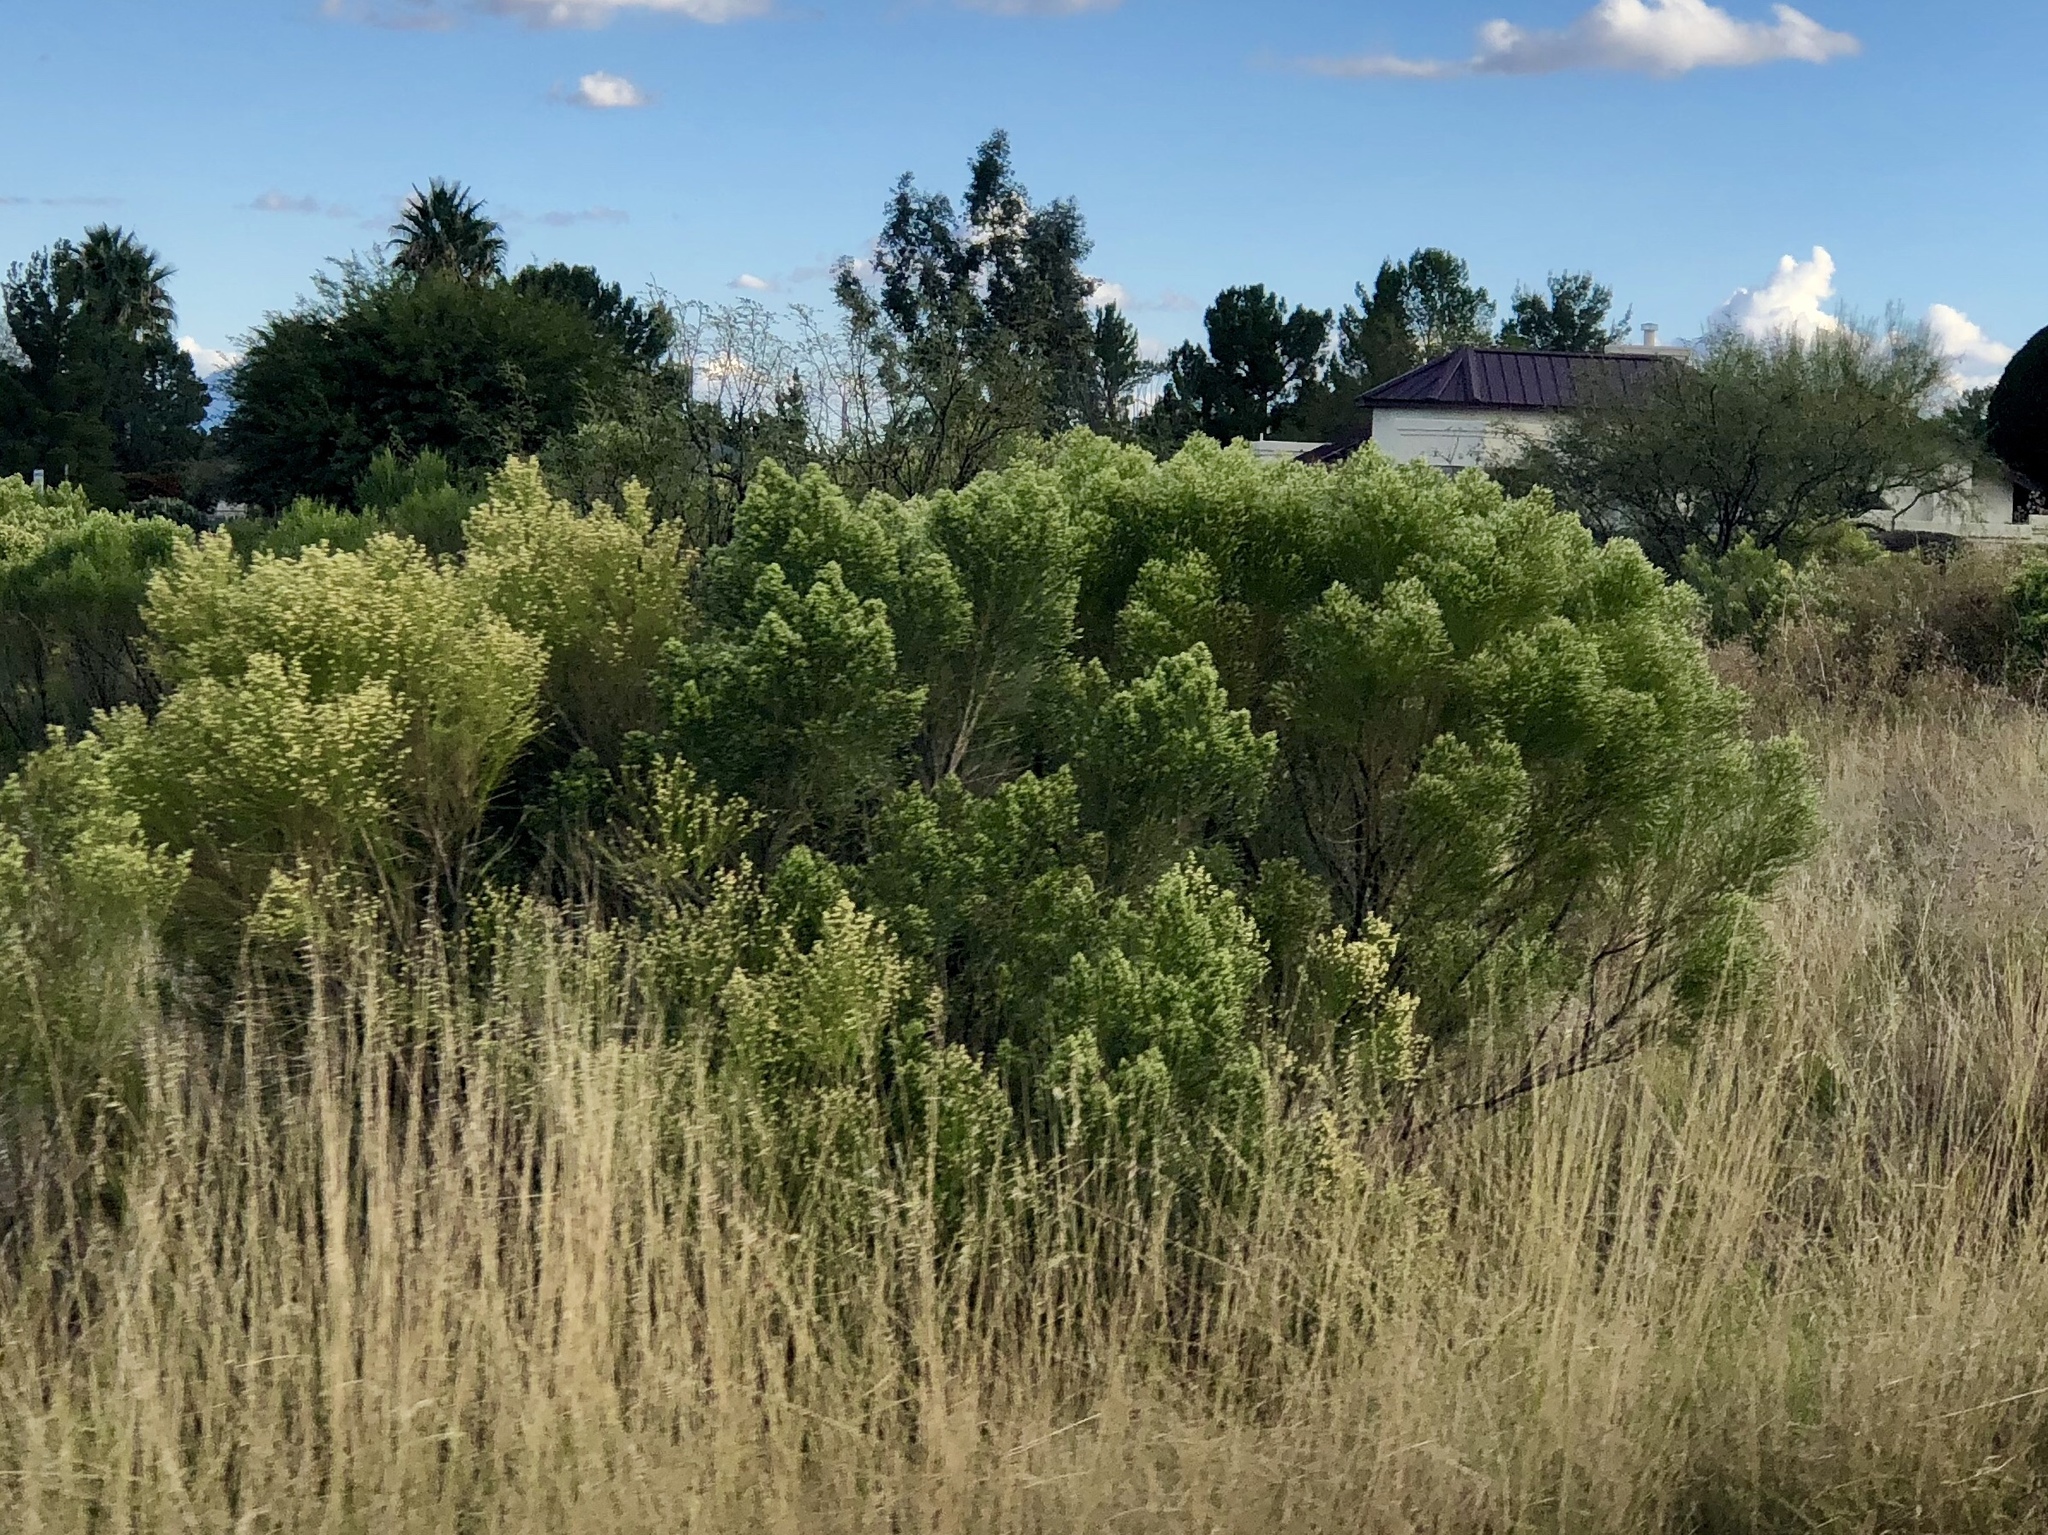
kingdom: Plantae
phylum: Tracheophyta
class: Magnoliopsida
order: Asterales
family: Asteraceae
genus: Baccharis
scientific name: Baccharis sarothroides
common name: Desert-broom
